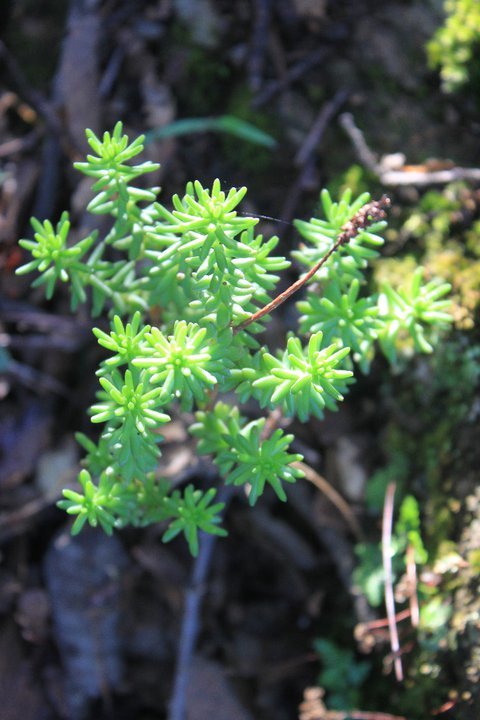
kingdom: Plantae
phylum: Tracheophyta
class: Magnoliopsida
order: Saxifragales
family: Crassulaceae
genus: Sedum
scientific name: Sedum liebmannianum
